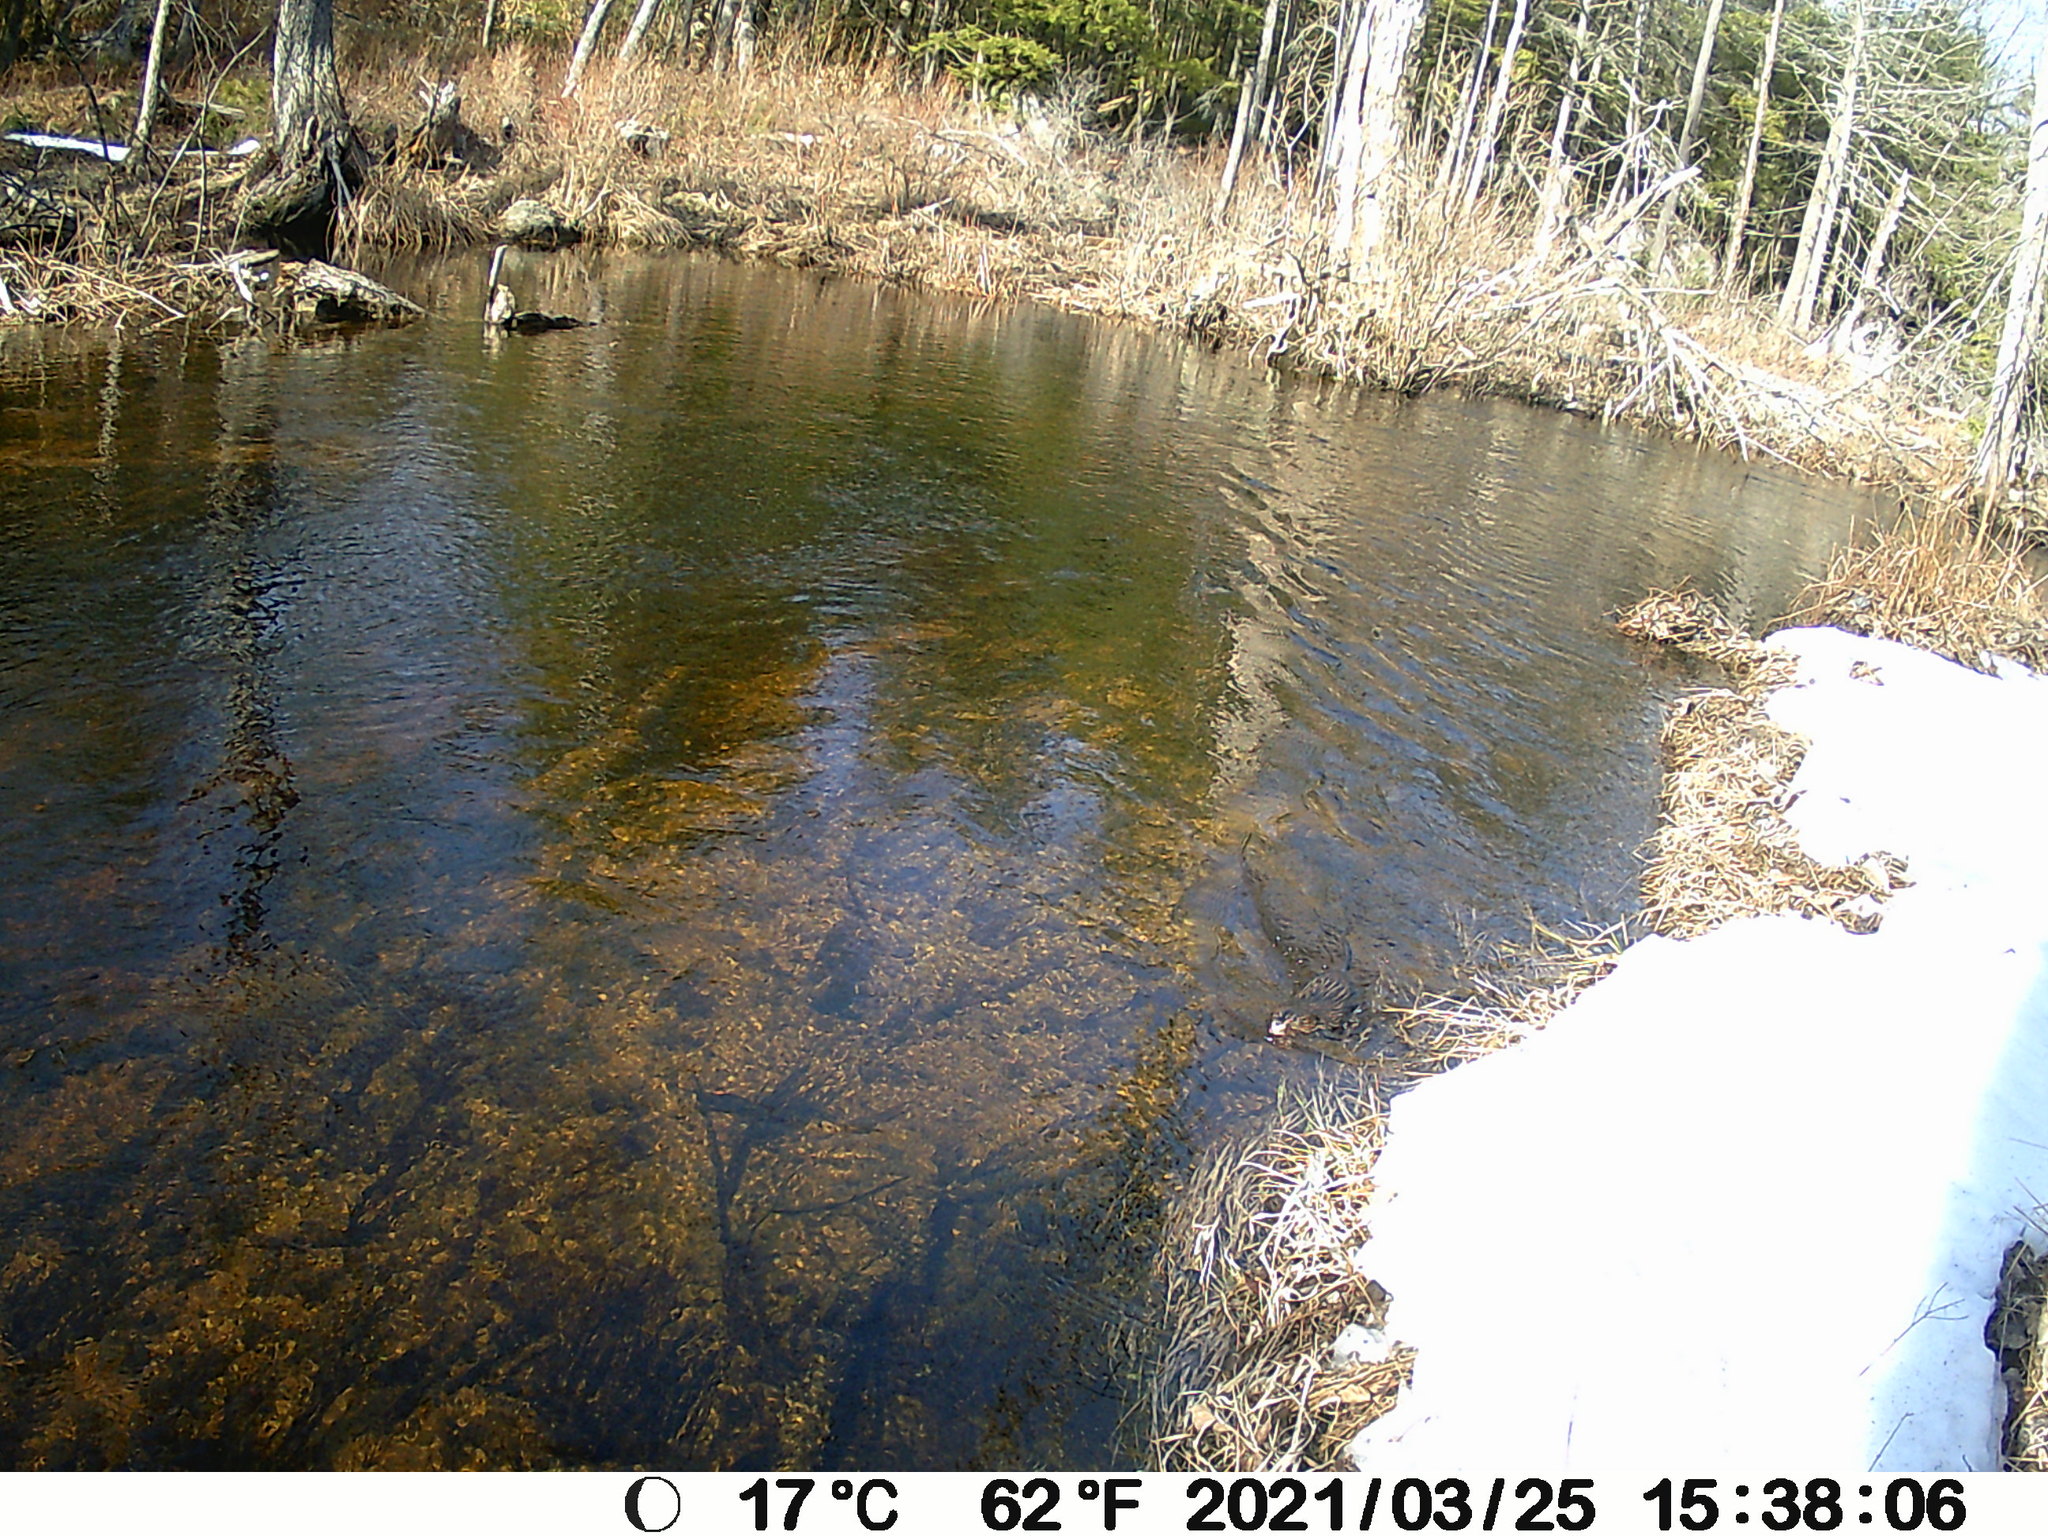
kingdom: Animalia
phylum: Chordata
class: Mammalia
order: Rodentia
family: Cricetidae
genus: Ondatra
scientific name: Ondatra zibethicus
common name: Muskrat
